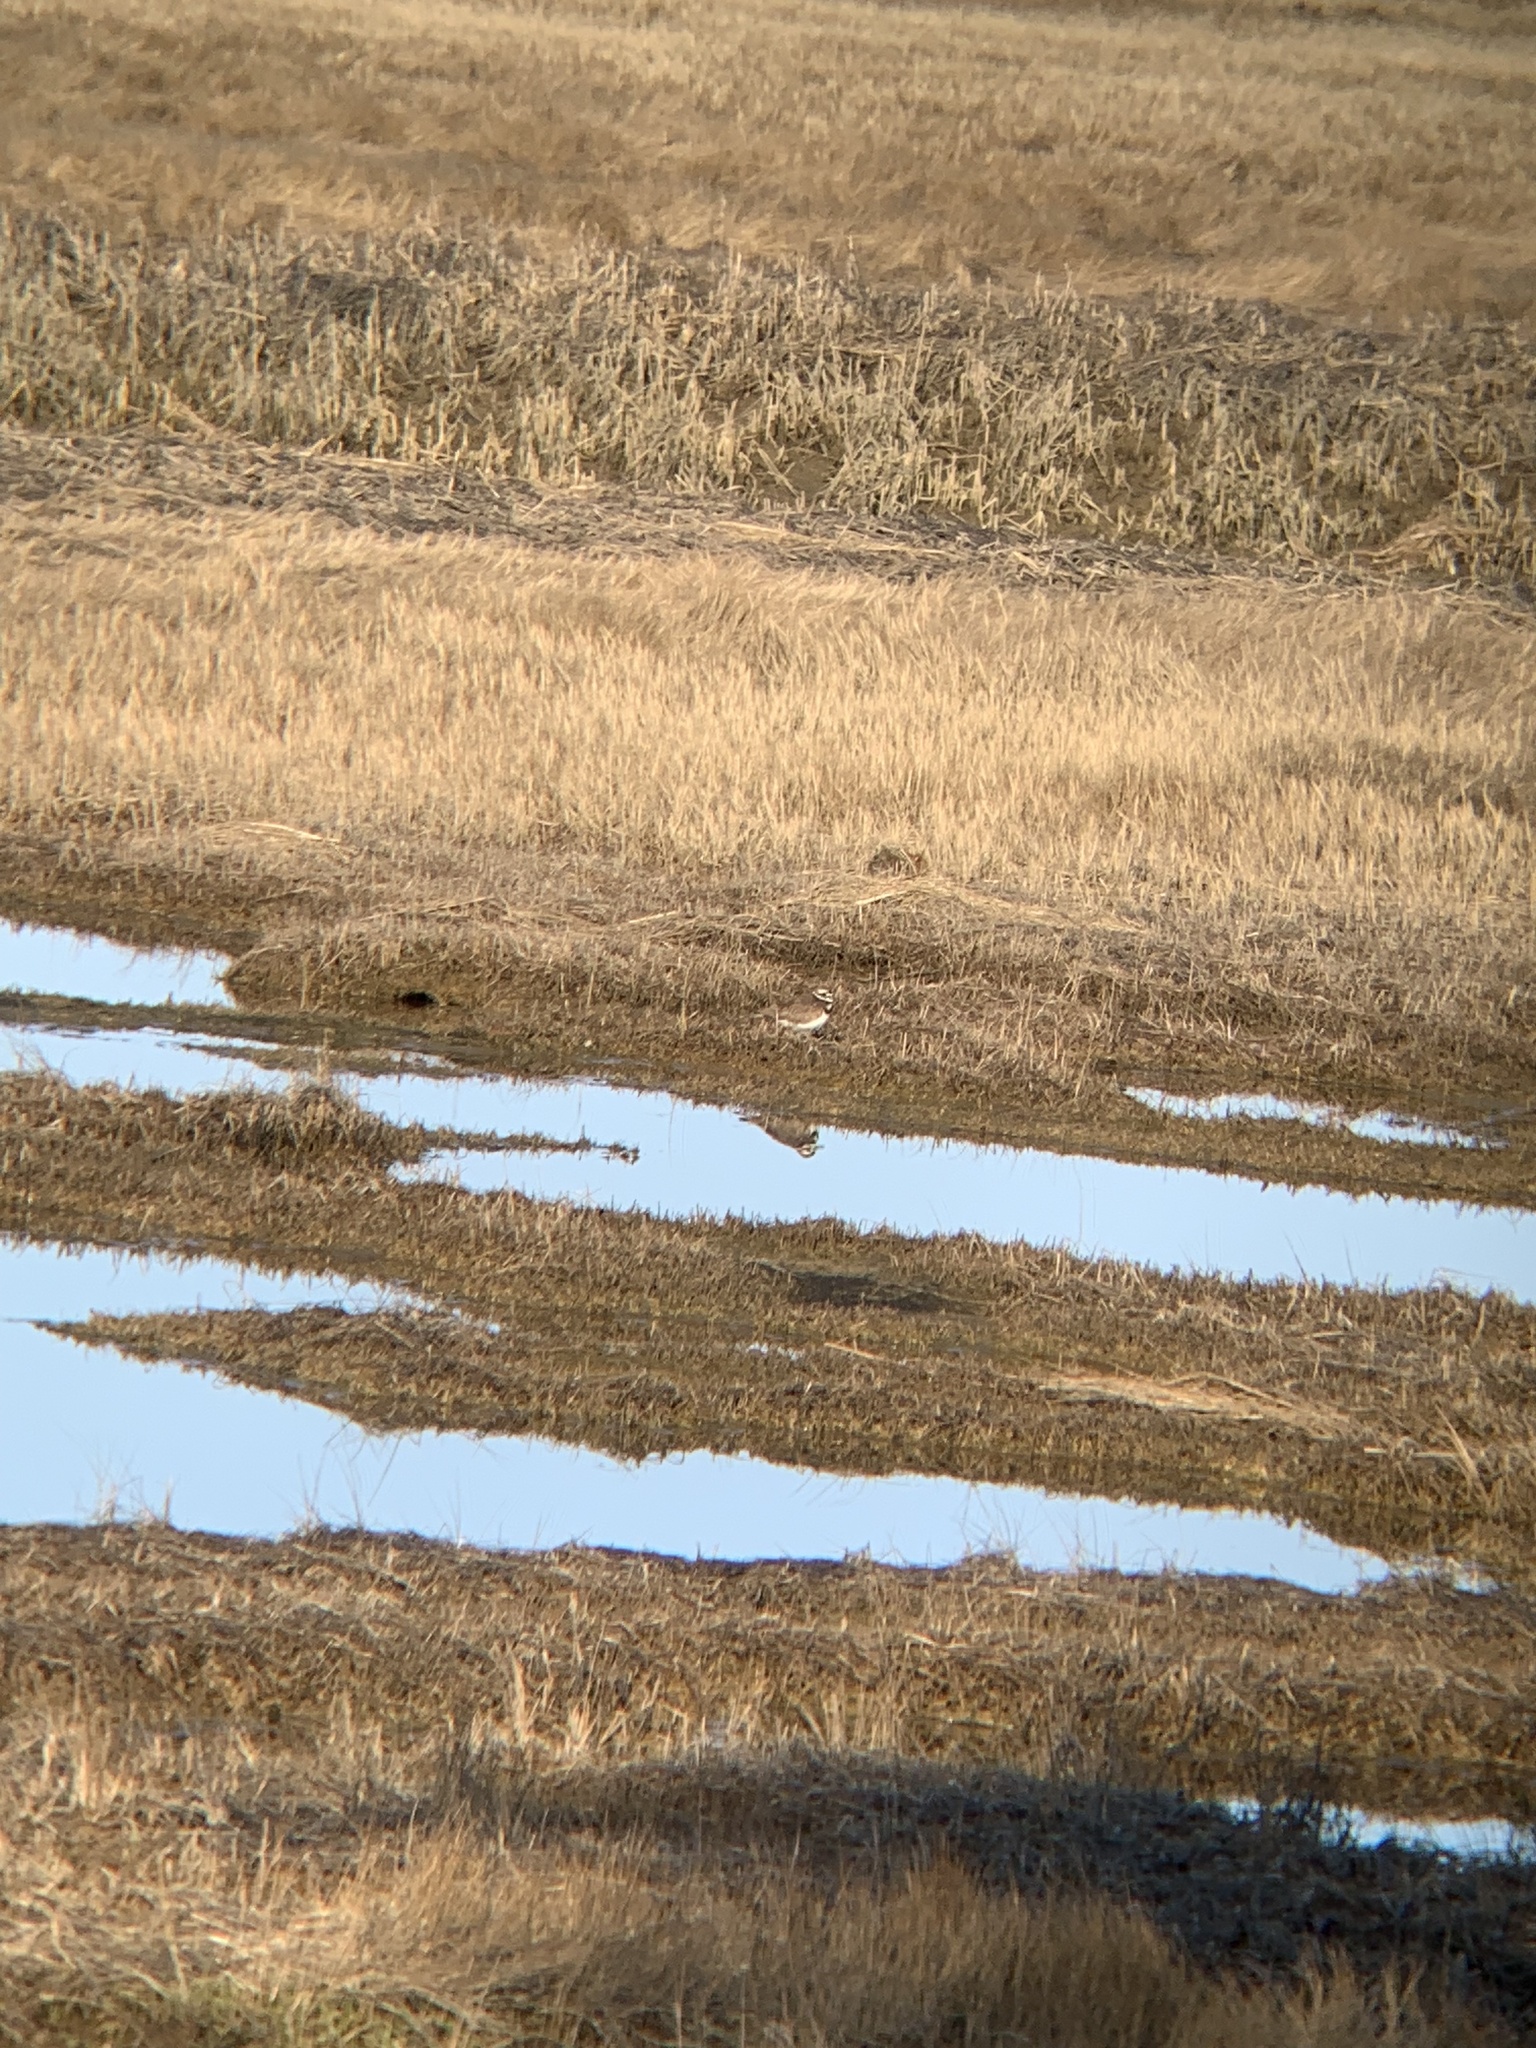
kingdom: Animalia
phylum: Chordata
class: Aves
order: Charadriiformes
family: Charadriidae
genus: Charadrius
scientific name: Charadrius vociferus
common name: Killdeer
